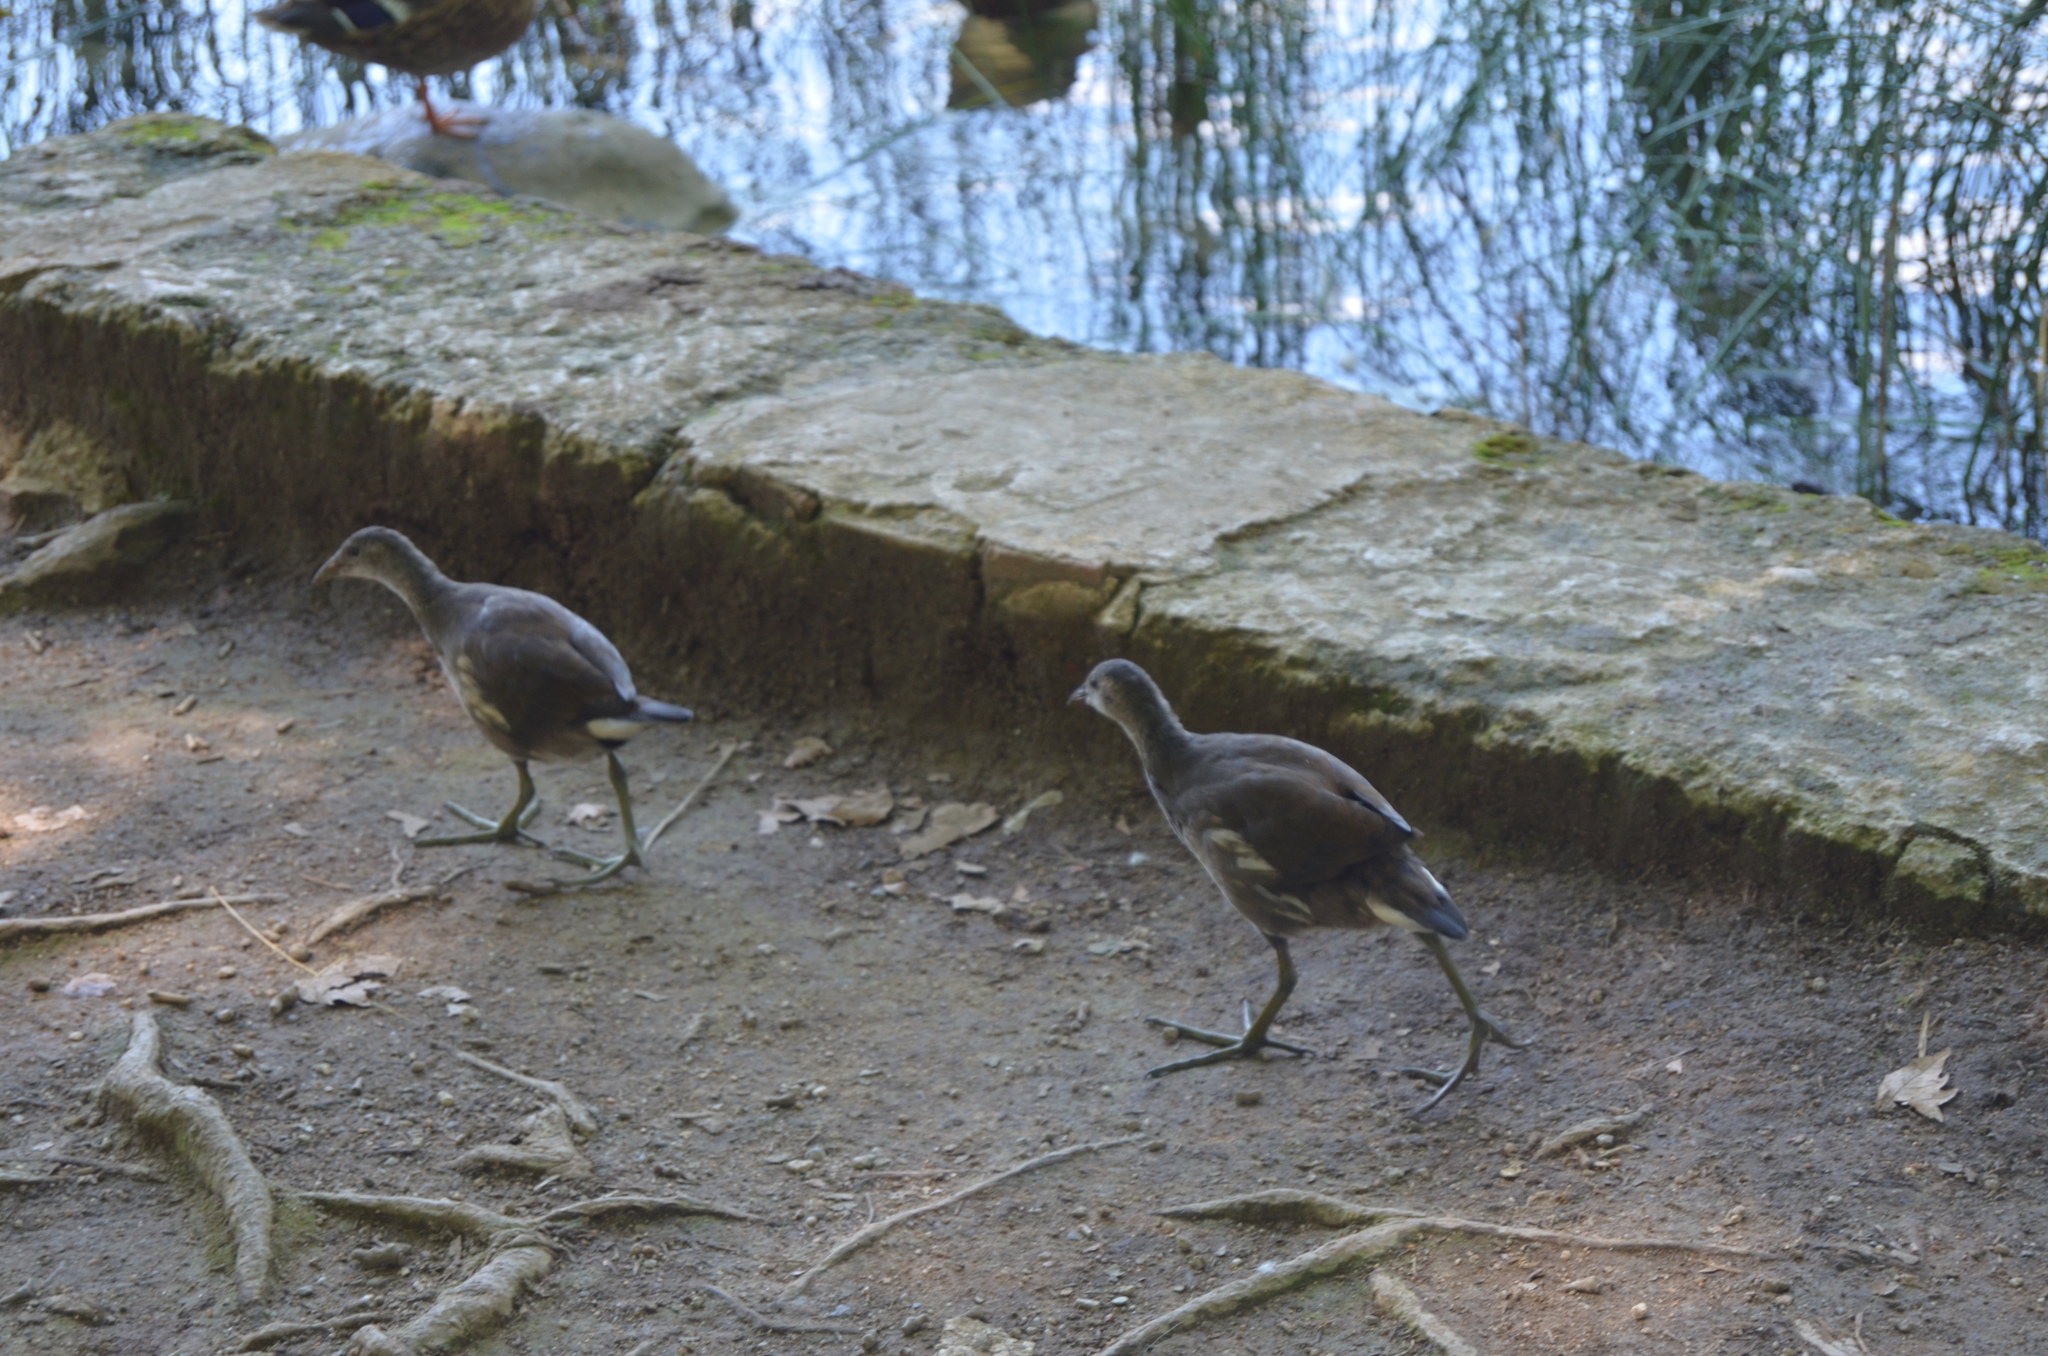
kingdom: Animalia
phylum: Chordata
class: Aves
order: Gruiformes
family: Rallidae
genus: Gallinula
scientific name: Gallinula chloropus
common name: Common moorhen
